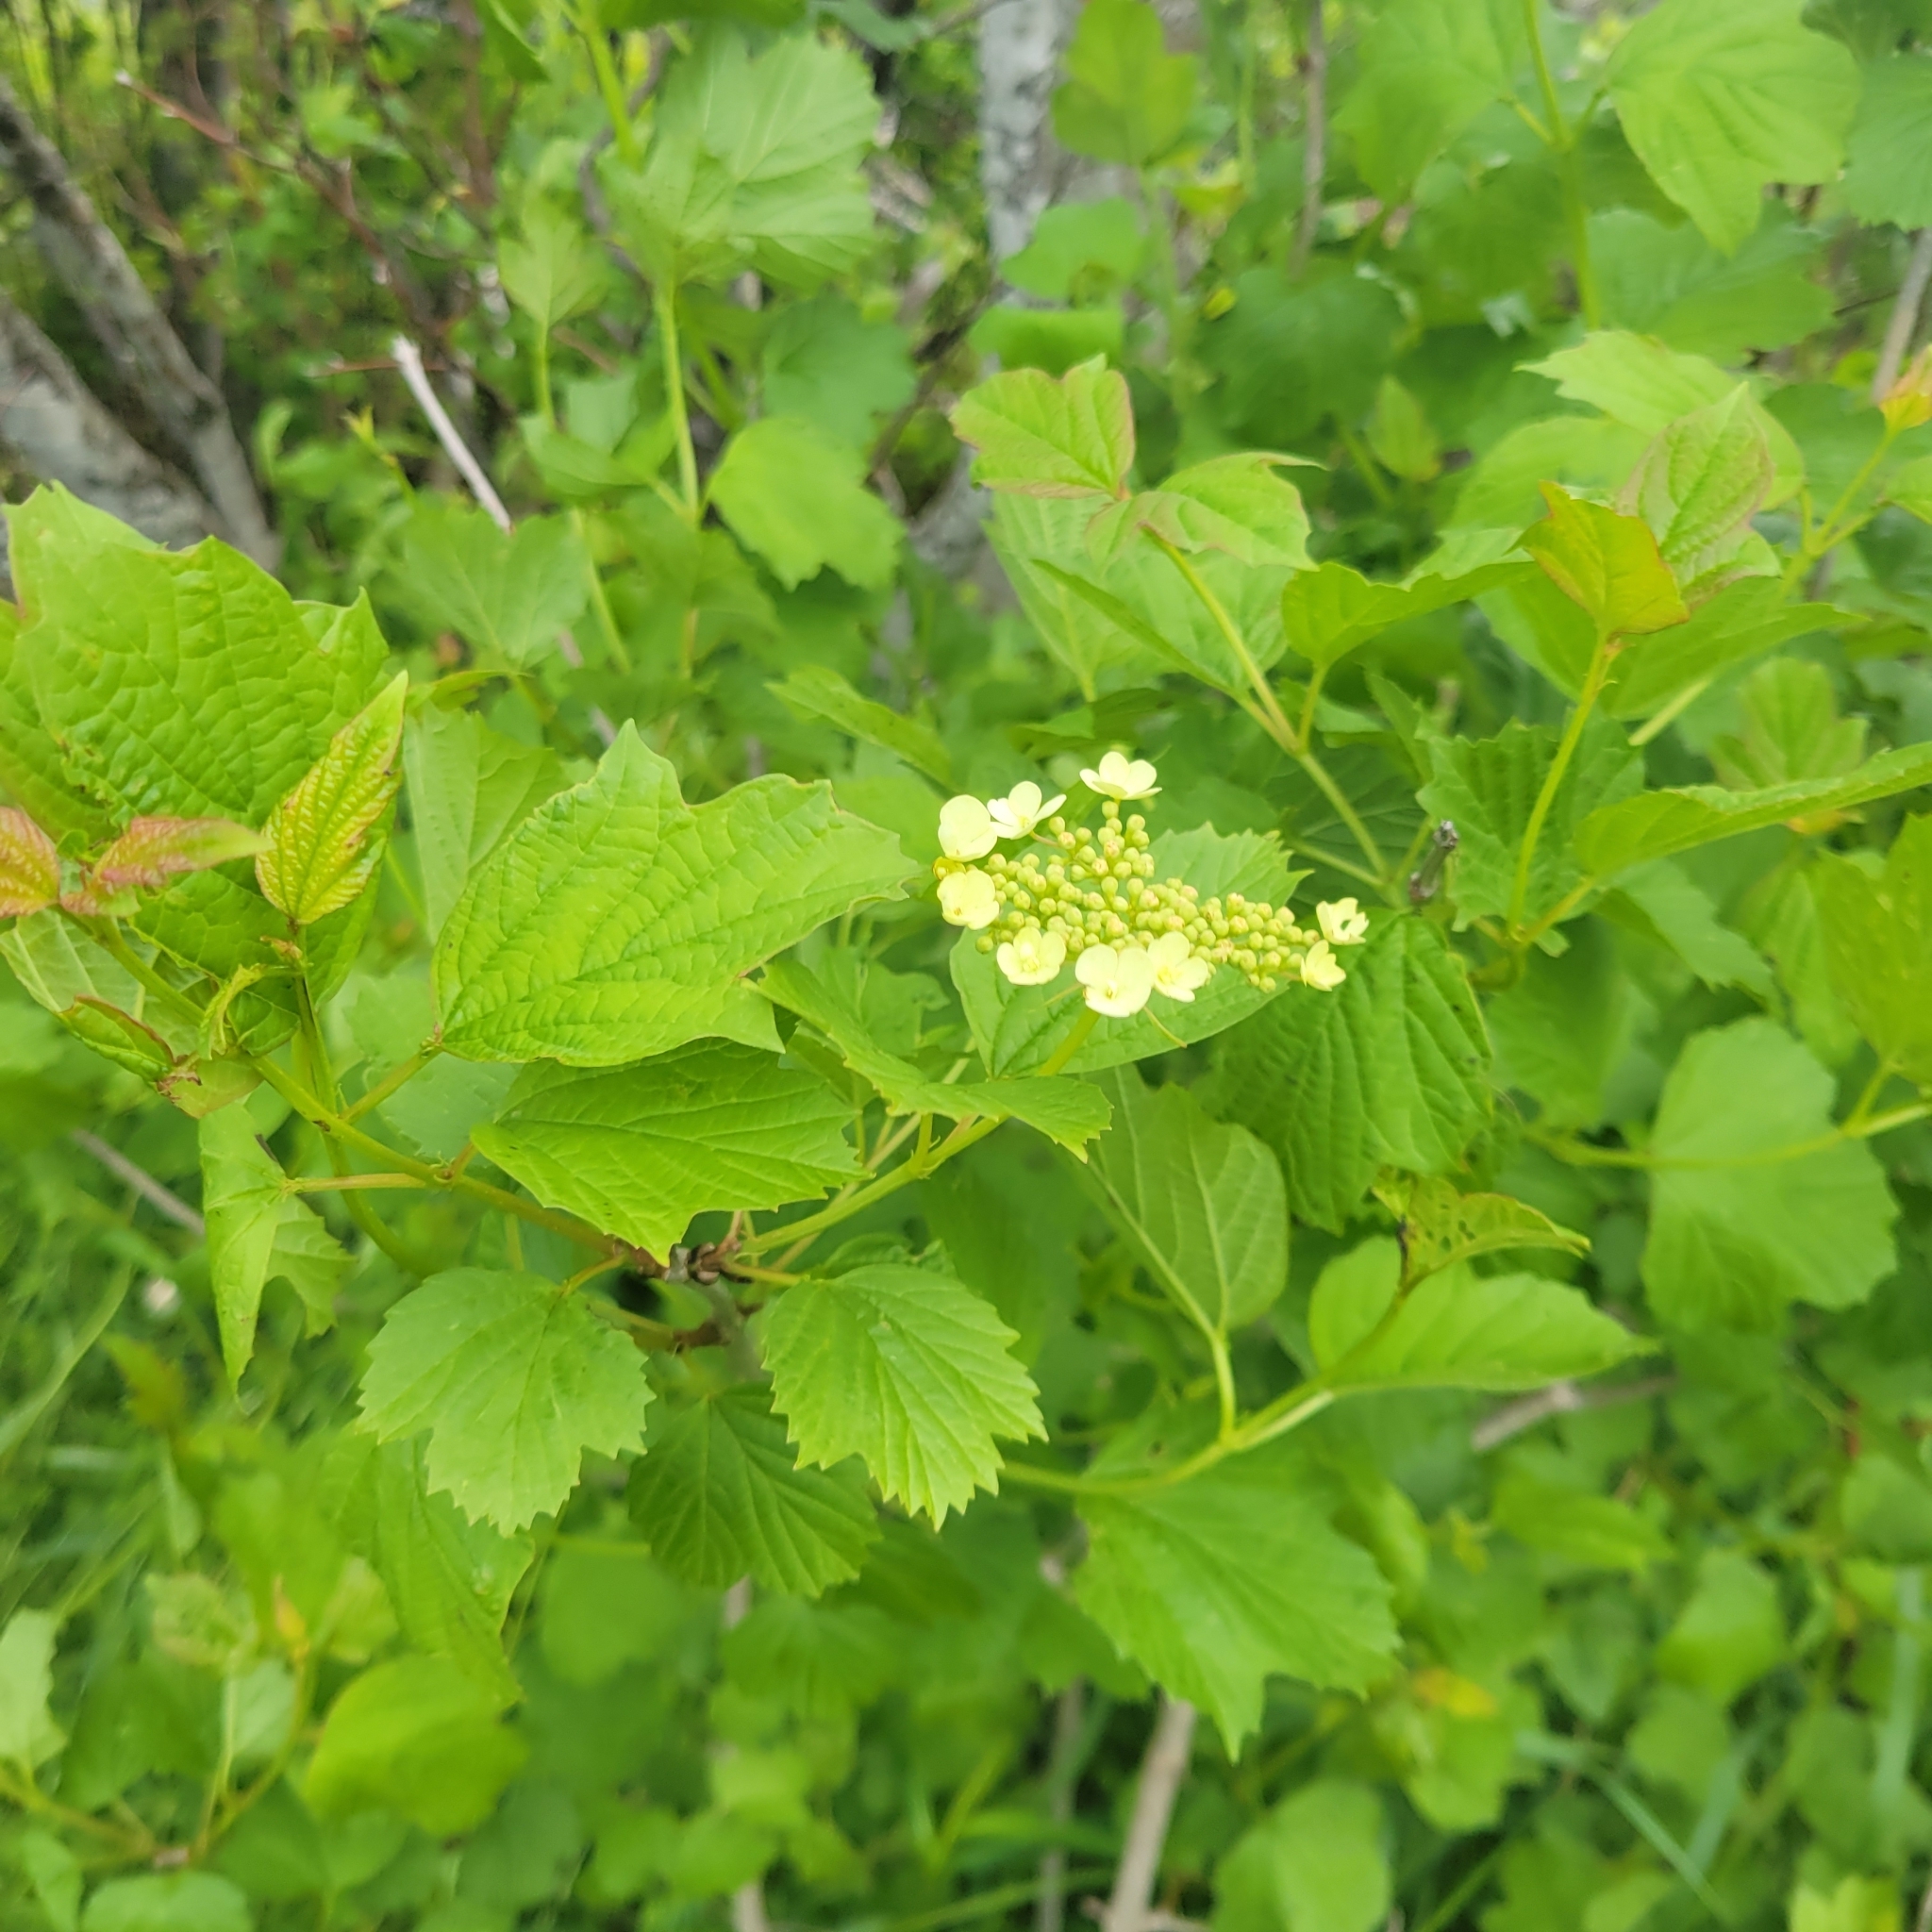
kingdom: Plantae
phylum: Tracheophyta
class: Magnoliopsida
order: Dipsacales
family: Viburnaceae
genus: Viburnum
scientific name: Viburnum opulus
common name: Guelder-rose
